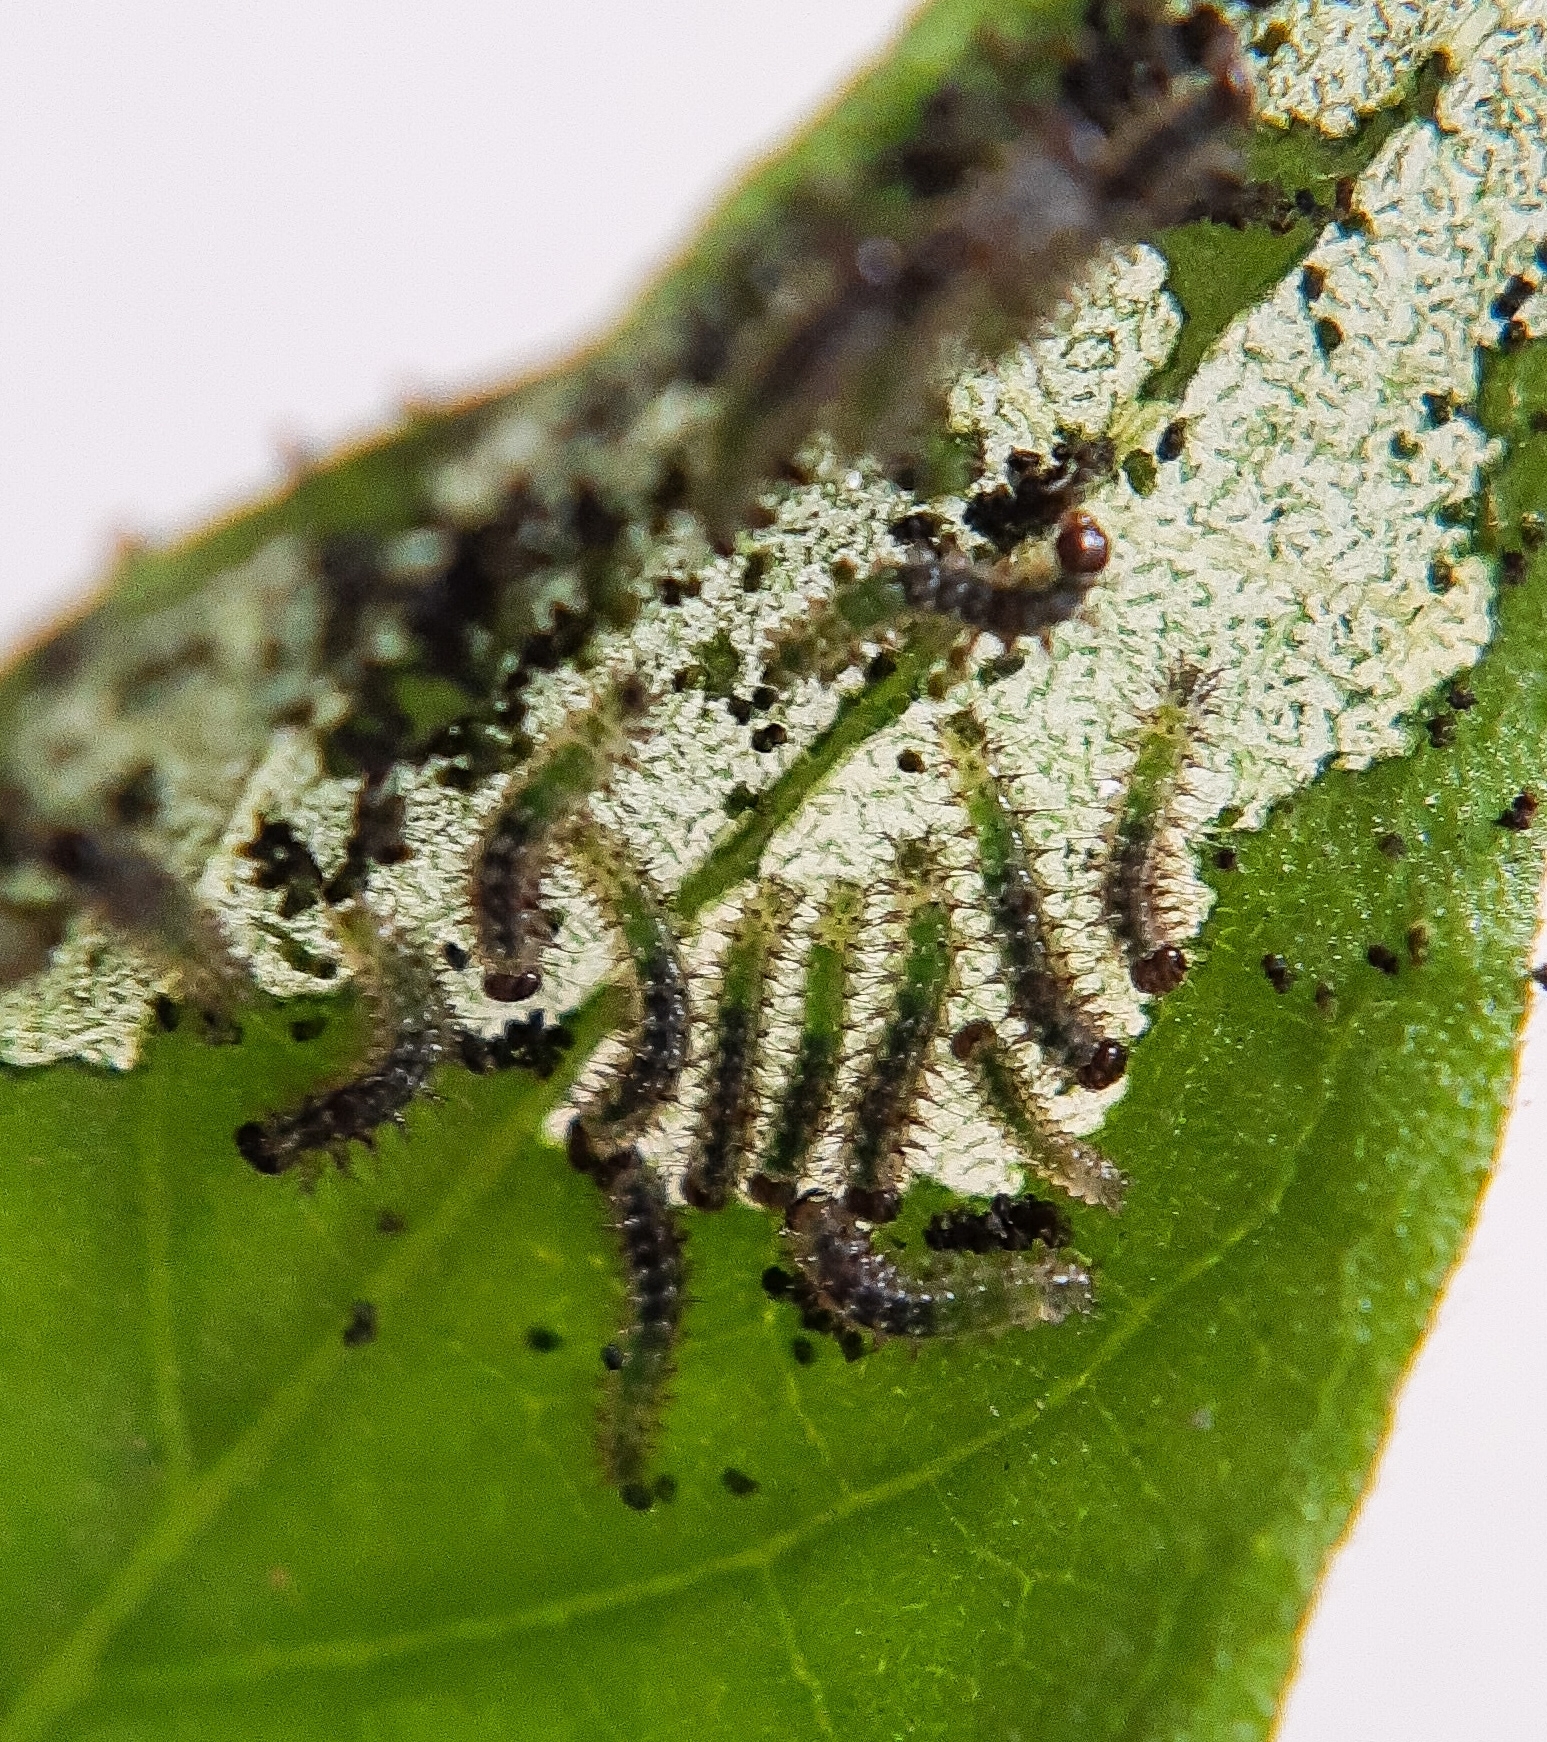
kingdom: Animalia
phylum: Arthropoda
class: Insecta
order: Lepidoptera
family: Nymphalidae
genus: Eresia
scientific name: Eresia lansdorfi
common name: Lansdorf's crescent
